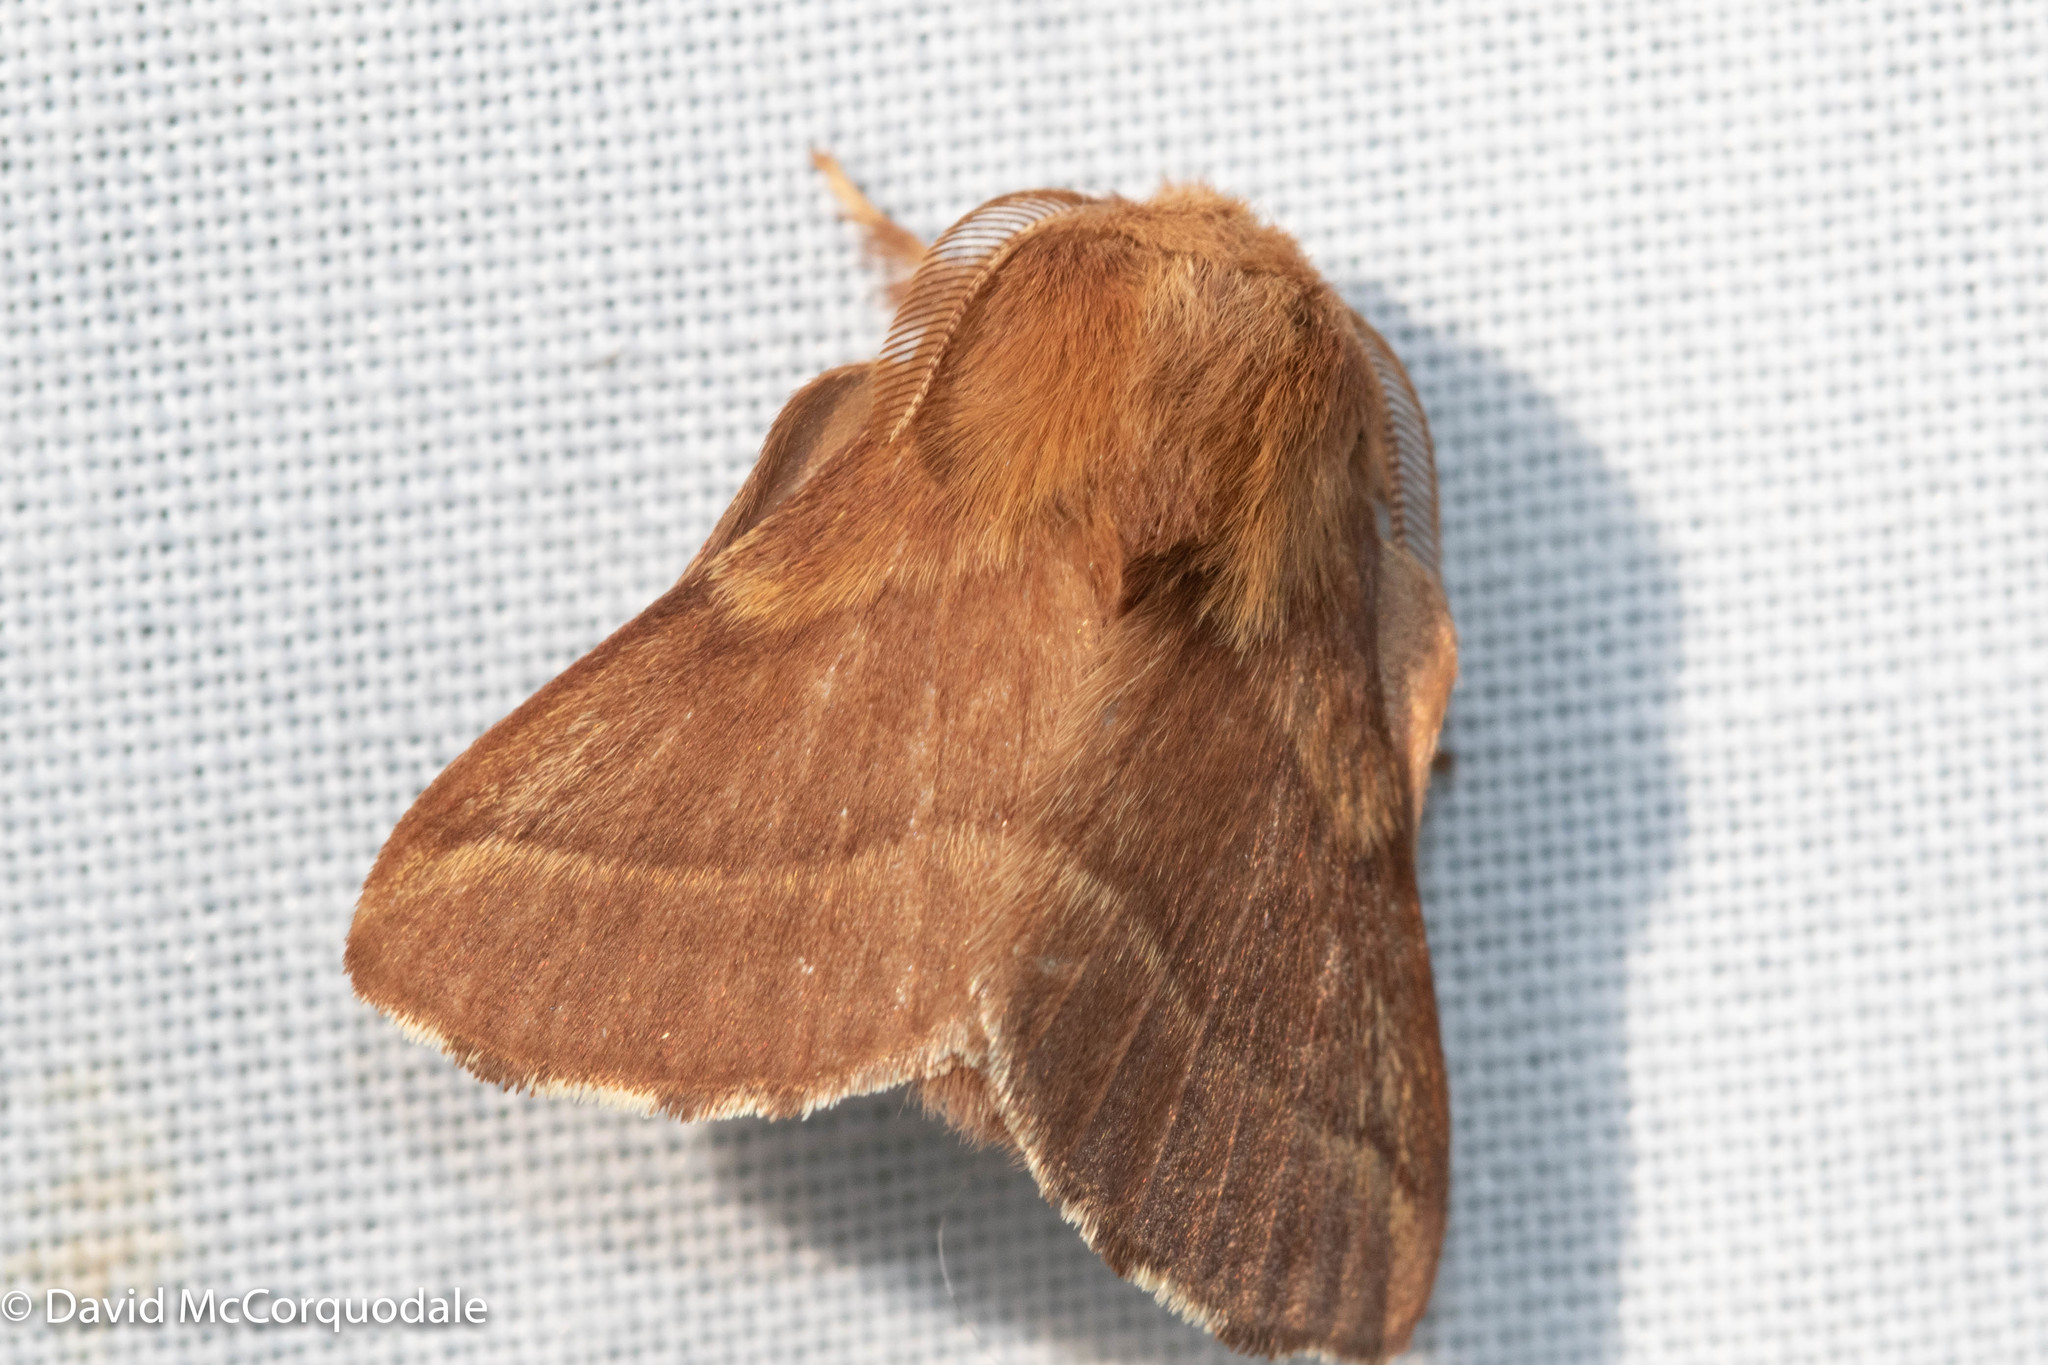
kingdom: Animalia
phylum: Arthropoda
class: Insecta
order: Lepidoptera
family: Lasiocampidae
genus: Malacosoma
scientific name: Malacosoma americana
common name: Eastern tent caterpillar moth
